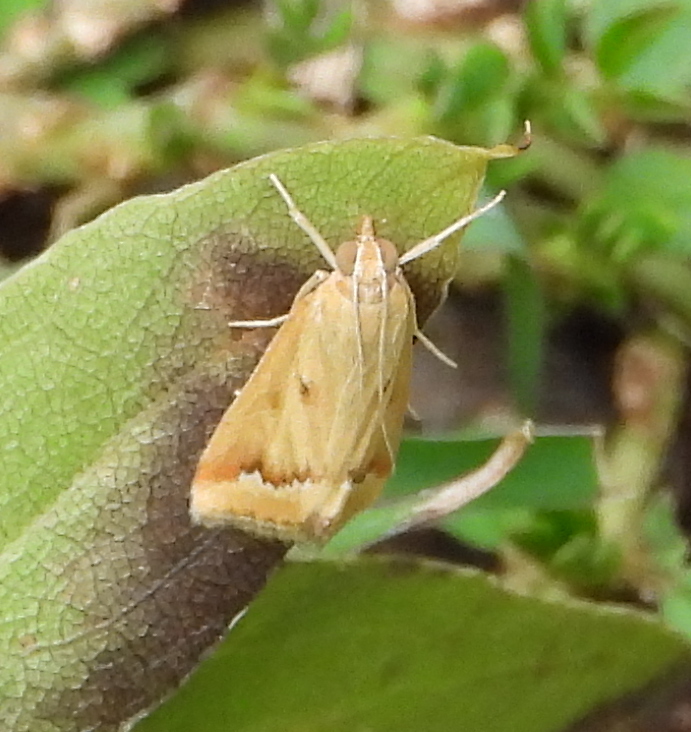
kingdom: Animalia
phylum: Arthropoda
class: Insecta
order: Lepidoptera
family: Crambidae
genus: Achyra
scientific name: Achyra coelatalis
